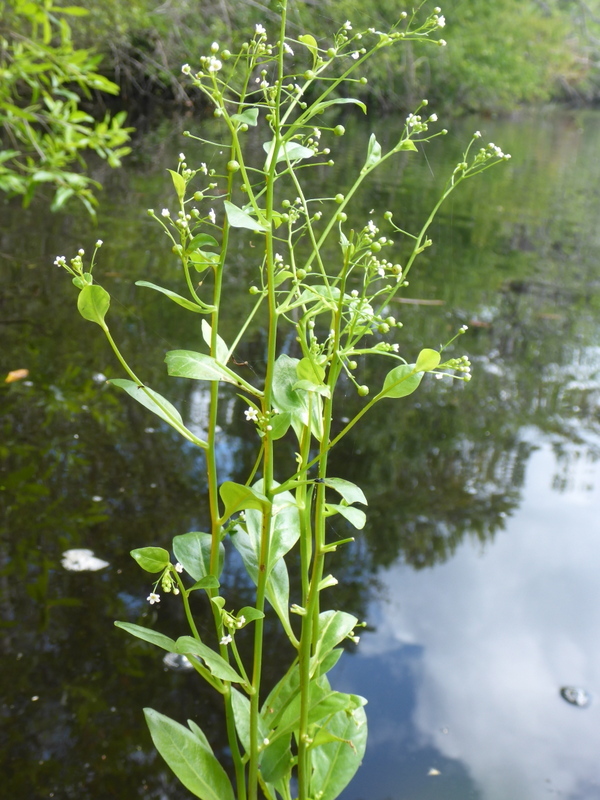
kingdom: Plantae
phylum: Tracheophyta
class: Magnoliopsida
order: Ericales
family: Primulaceae
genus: Samolus
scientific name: Samolus valerandi
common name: Brookweed
